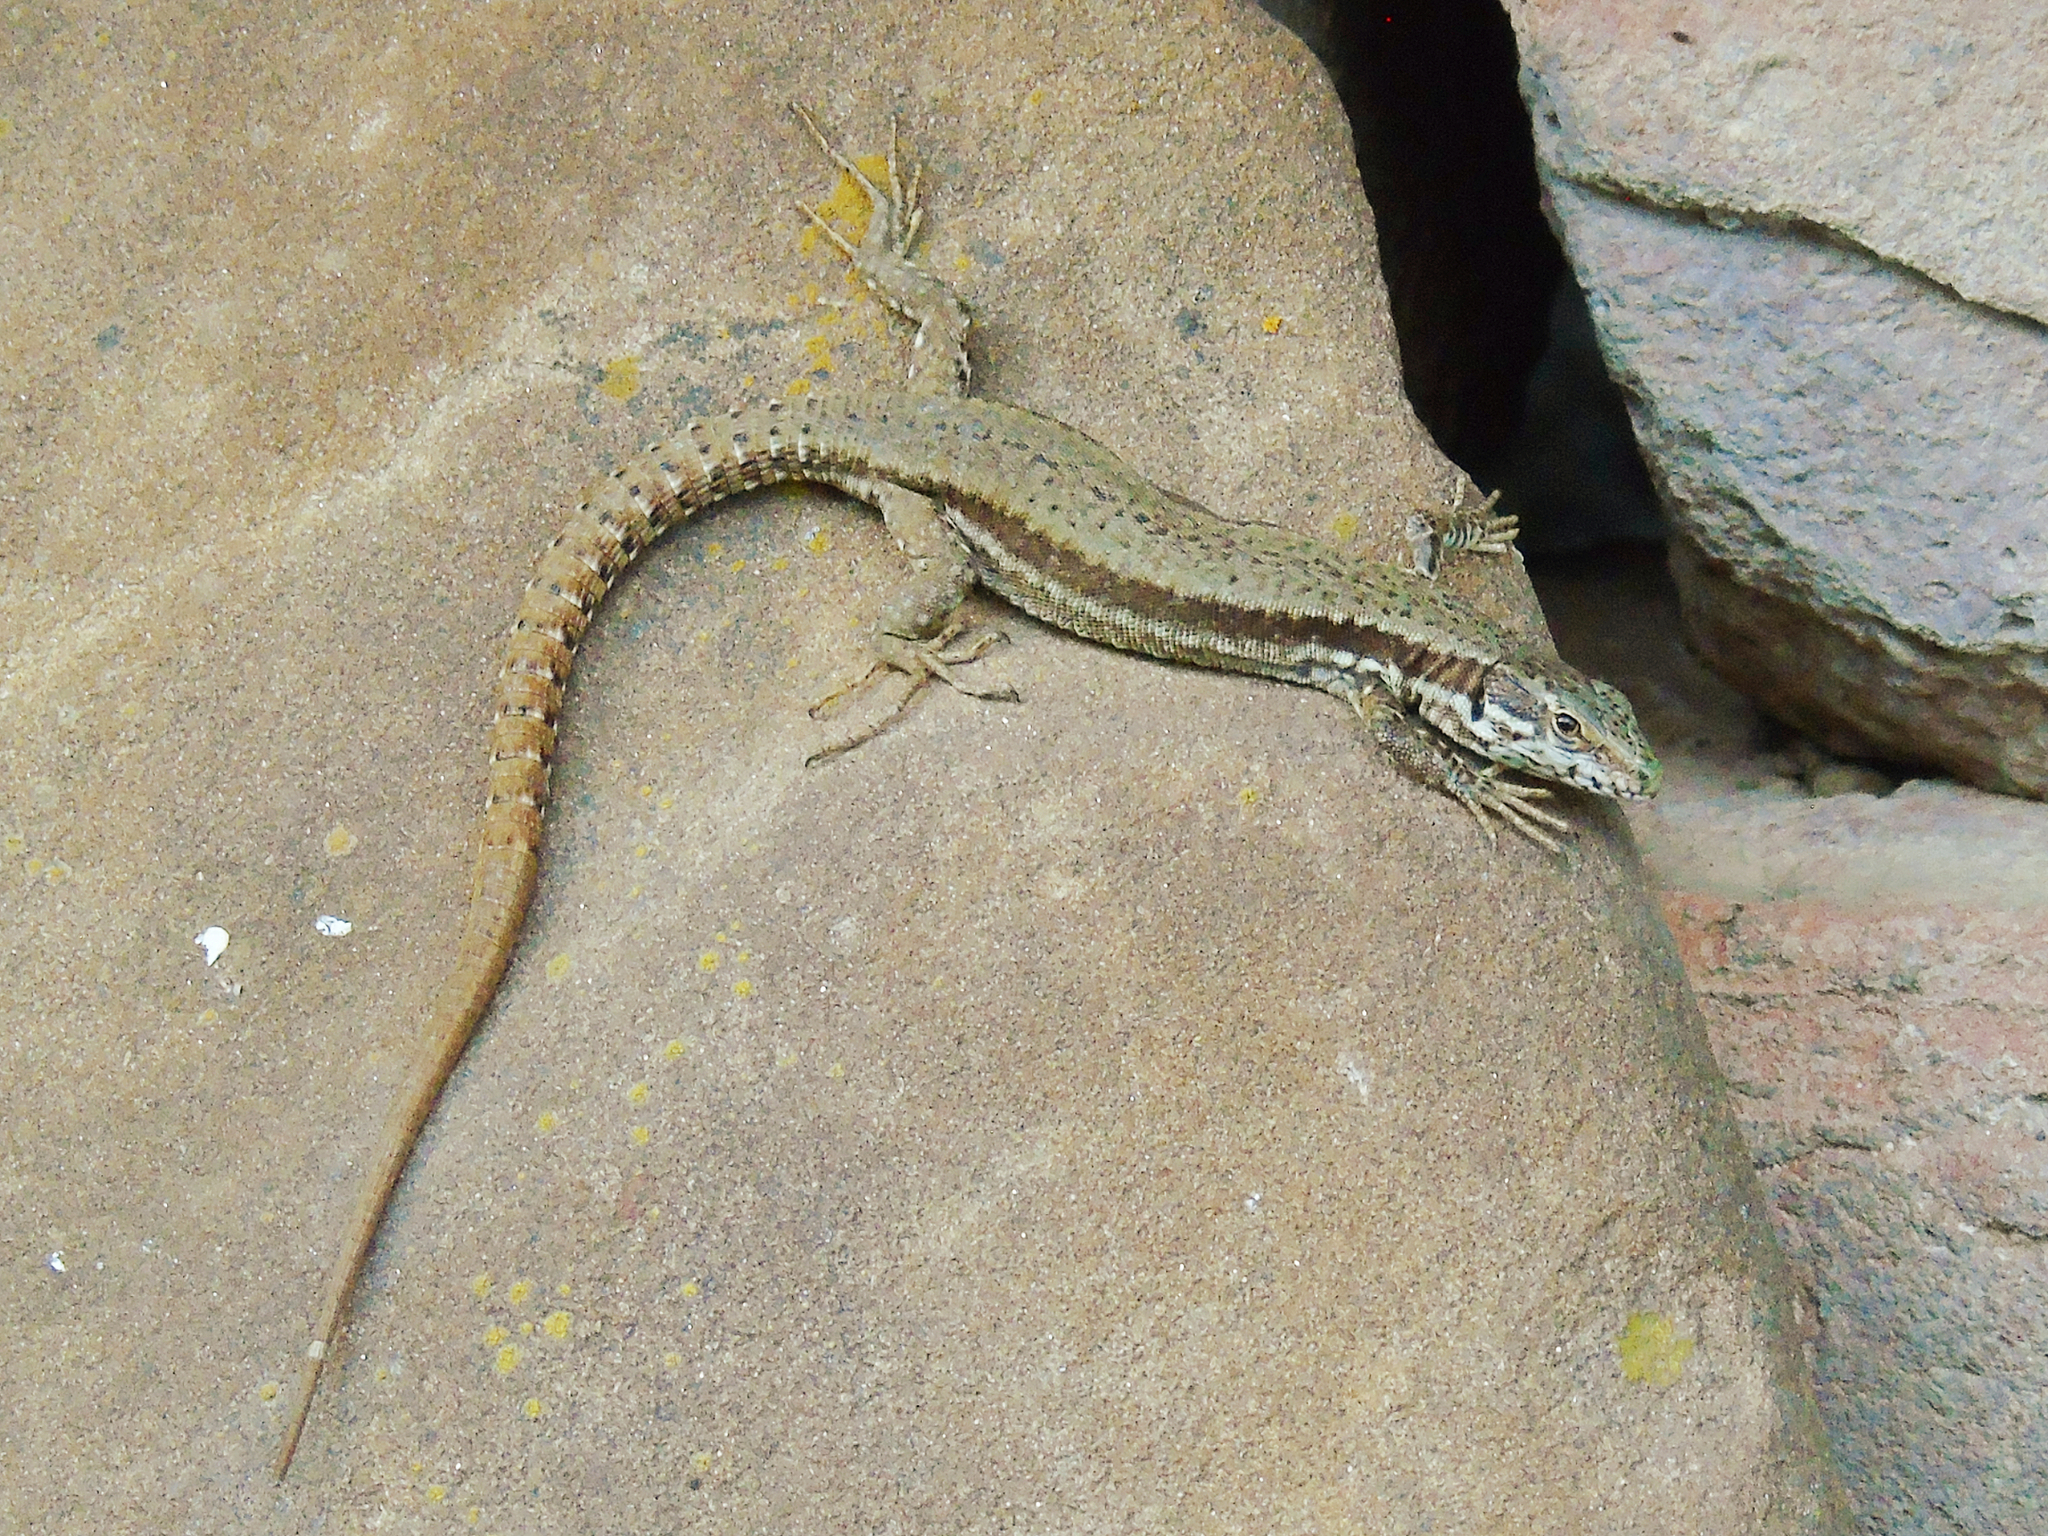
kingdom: Animalia
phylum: Chordata
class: Squamata
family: Lacertidae
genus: Podarcis
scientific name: Podarcis muralis
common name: Common wall lizard
